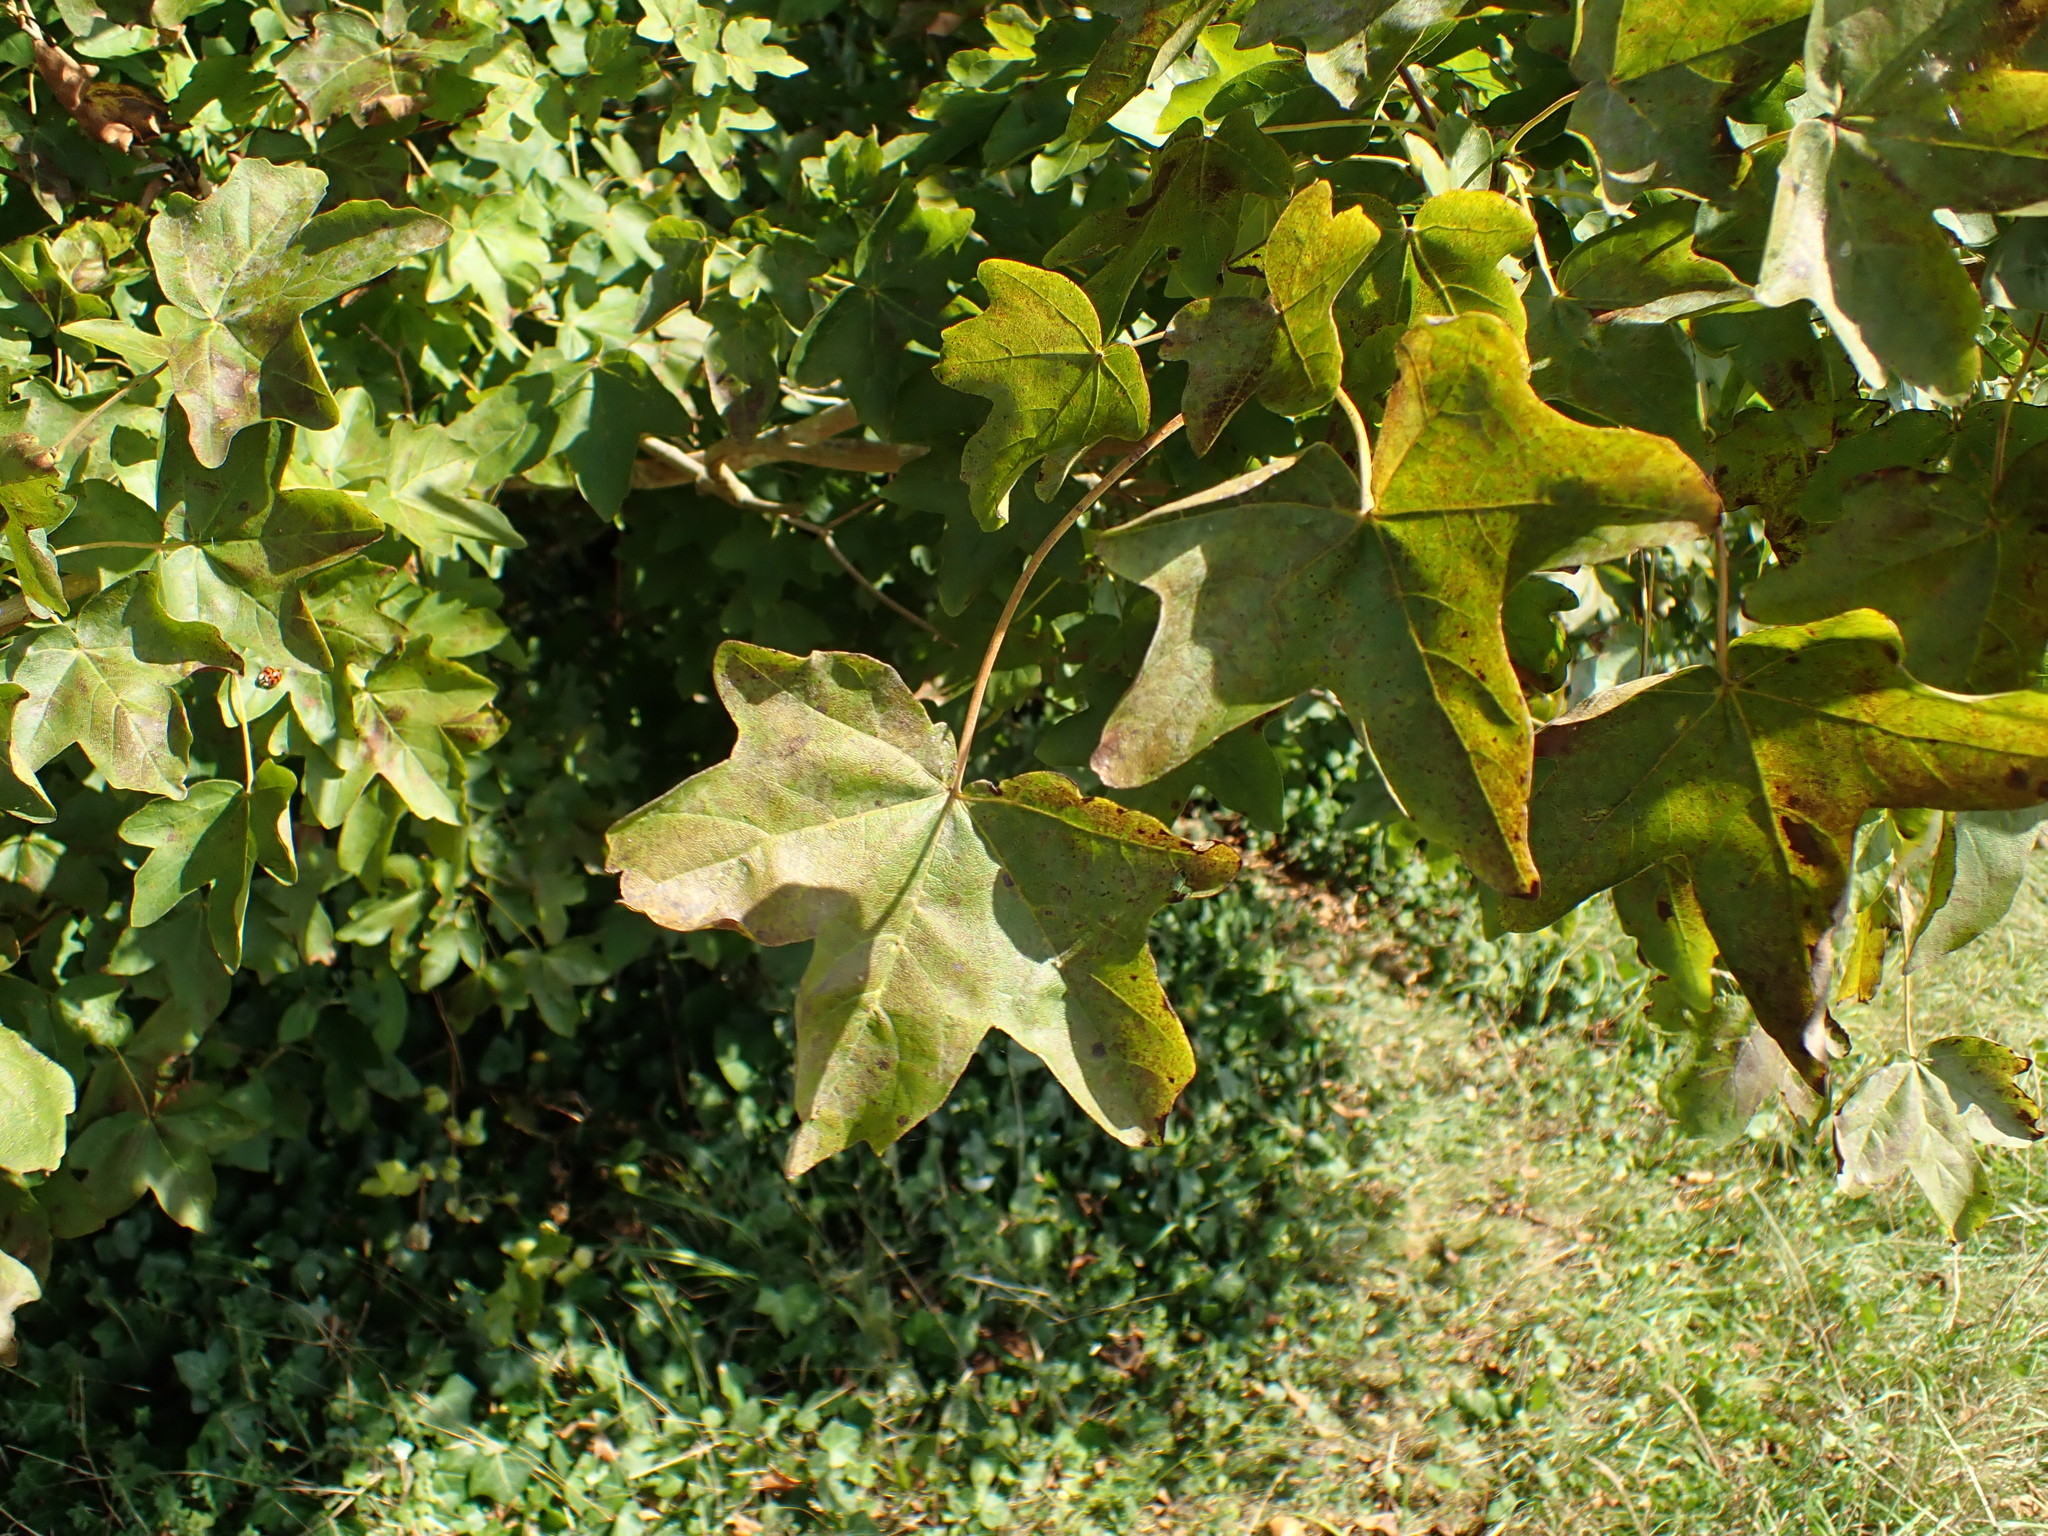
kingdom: Plantae
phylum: Tracheophyta
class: Magnoliopsida
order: Sapindales
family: Sapindaceae
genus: Acer
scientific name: Acer campestre
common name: Field maple
